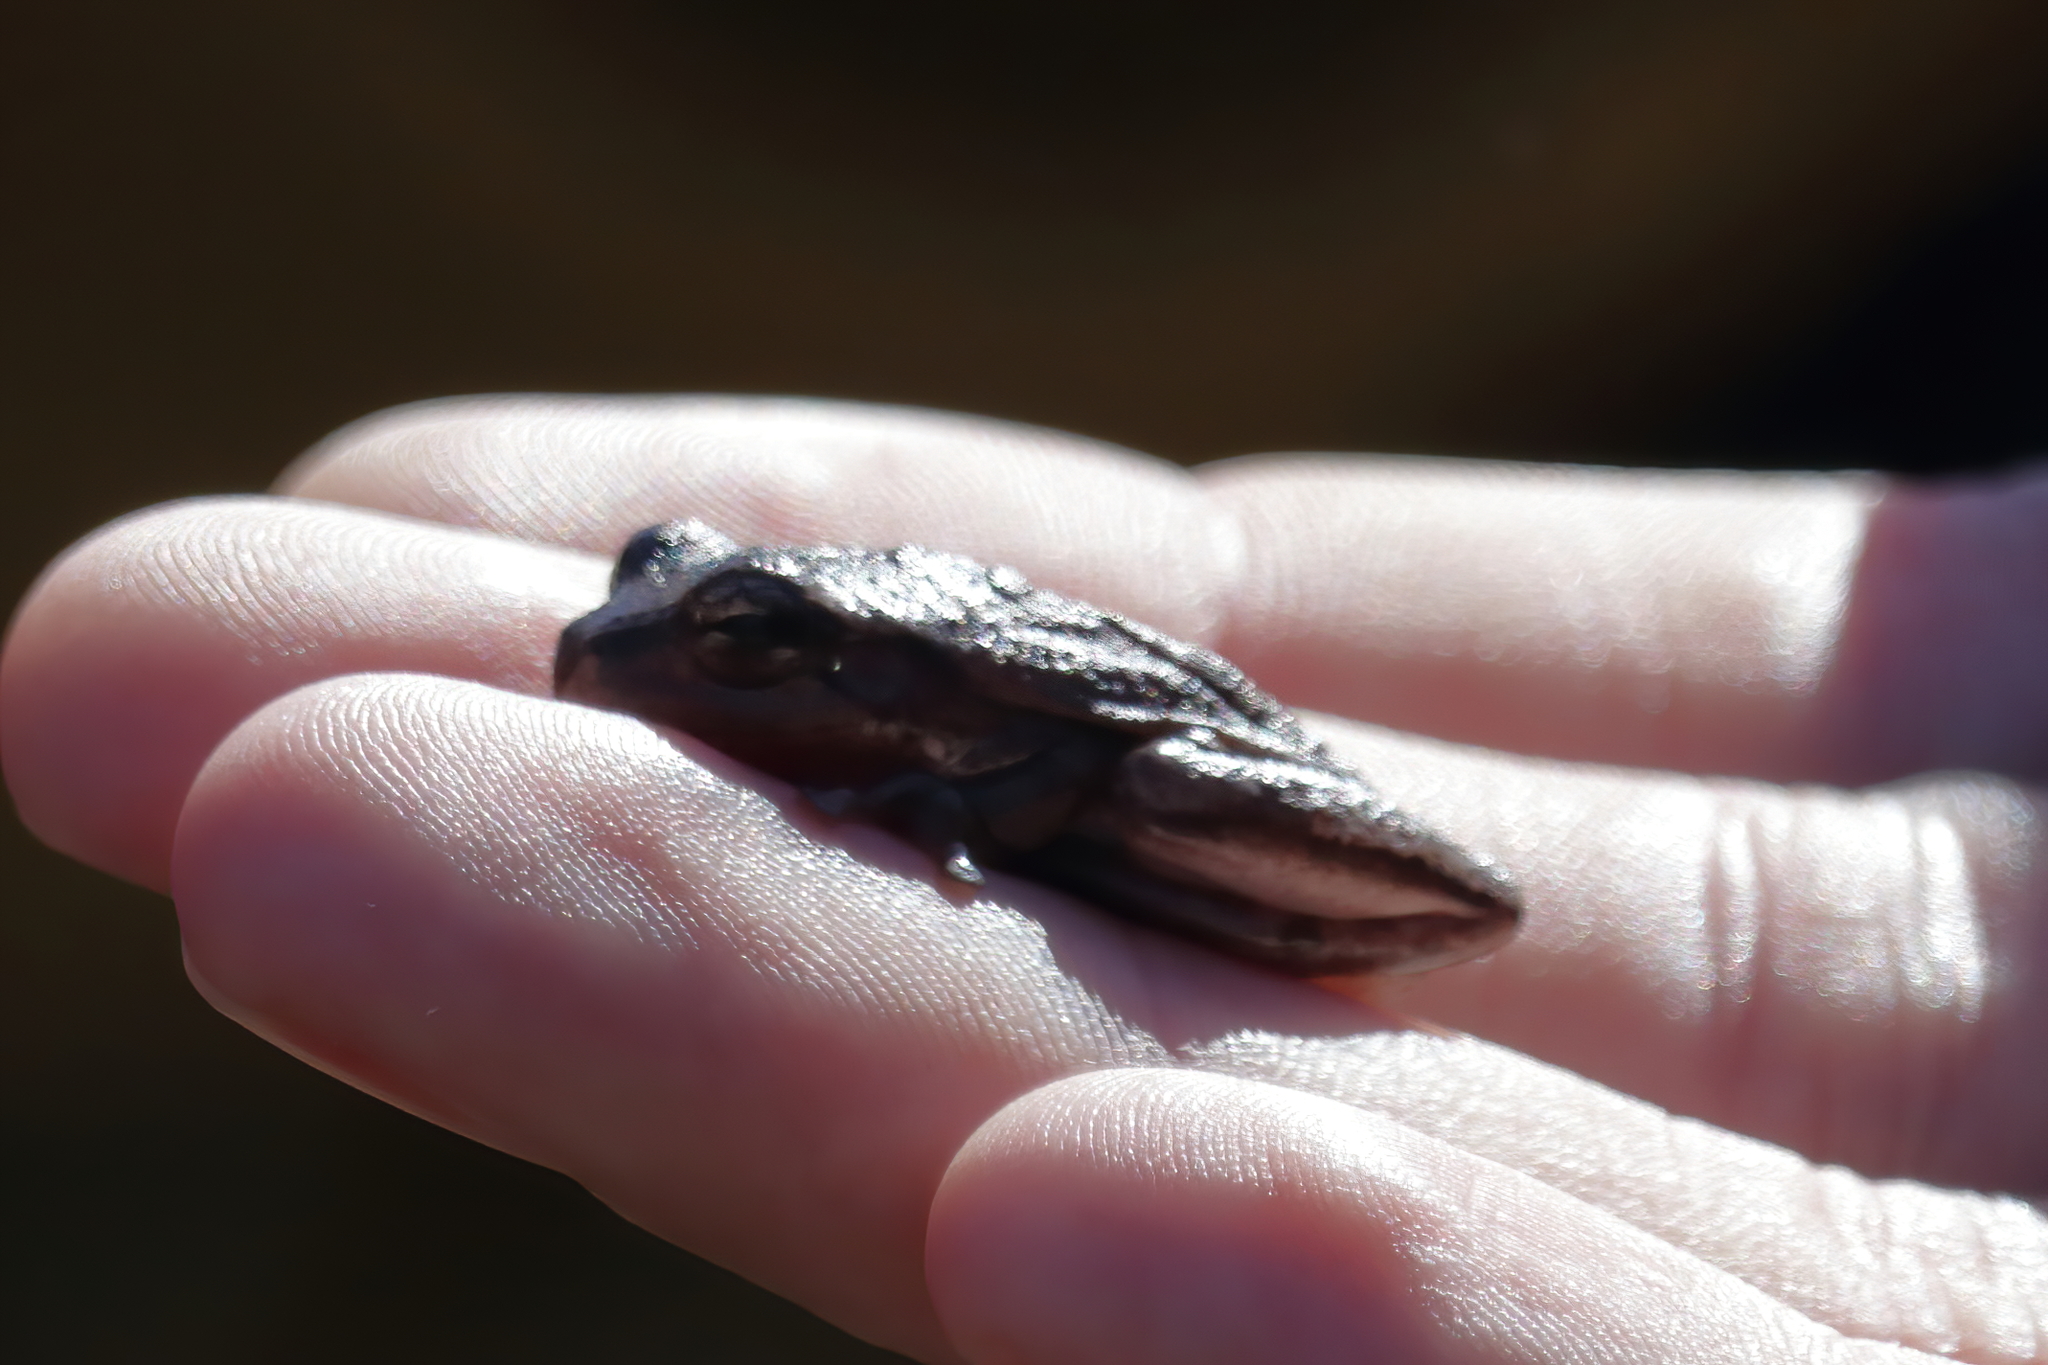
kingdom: Animalia
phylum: Chordata
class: Amphibia
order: Anura
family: Hylidae
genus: Hyla
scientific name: Hyla femoralis
